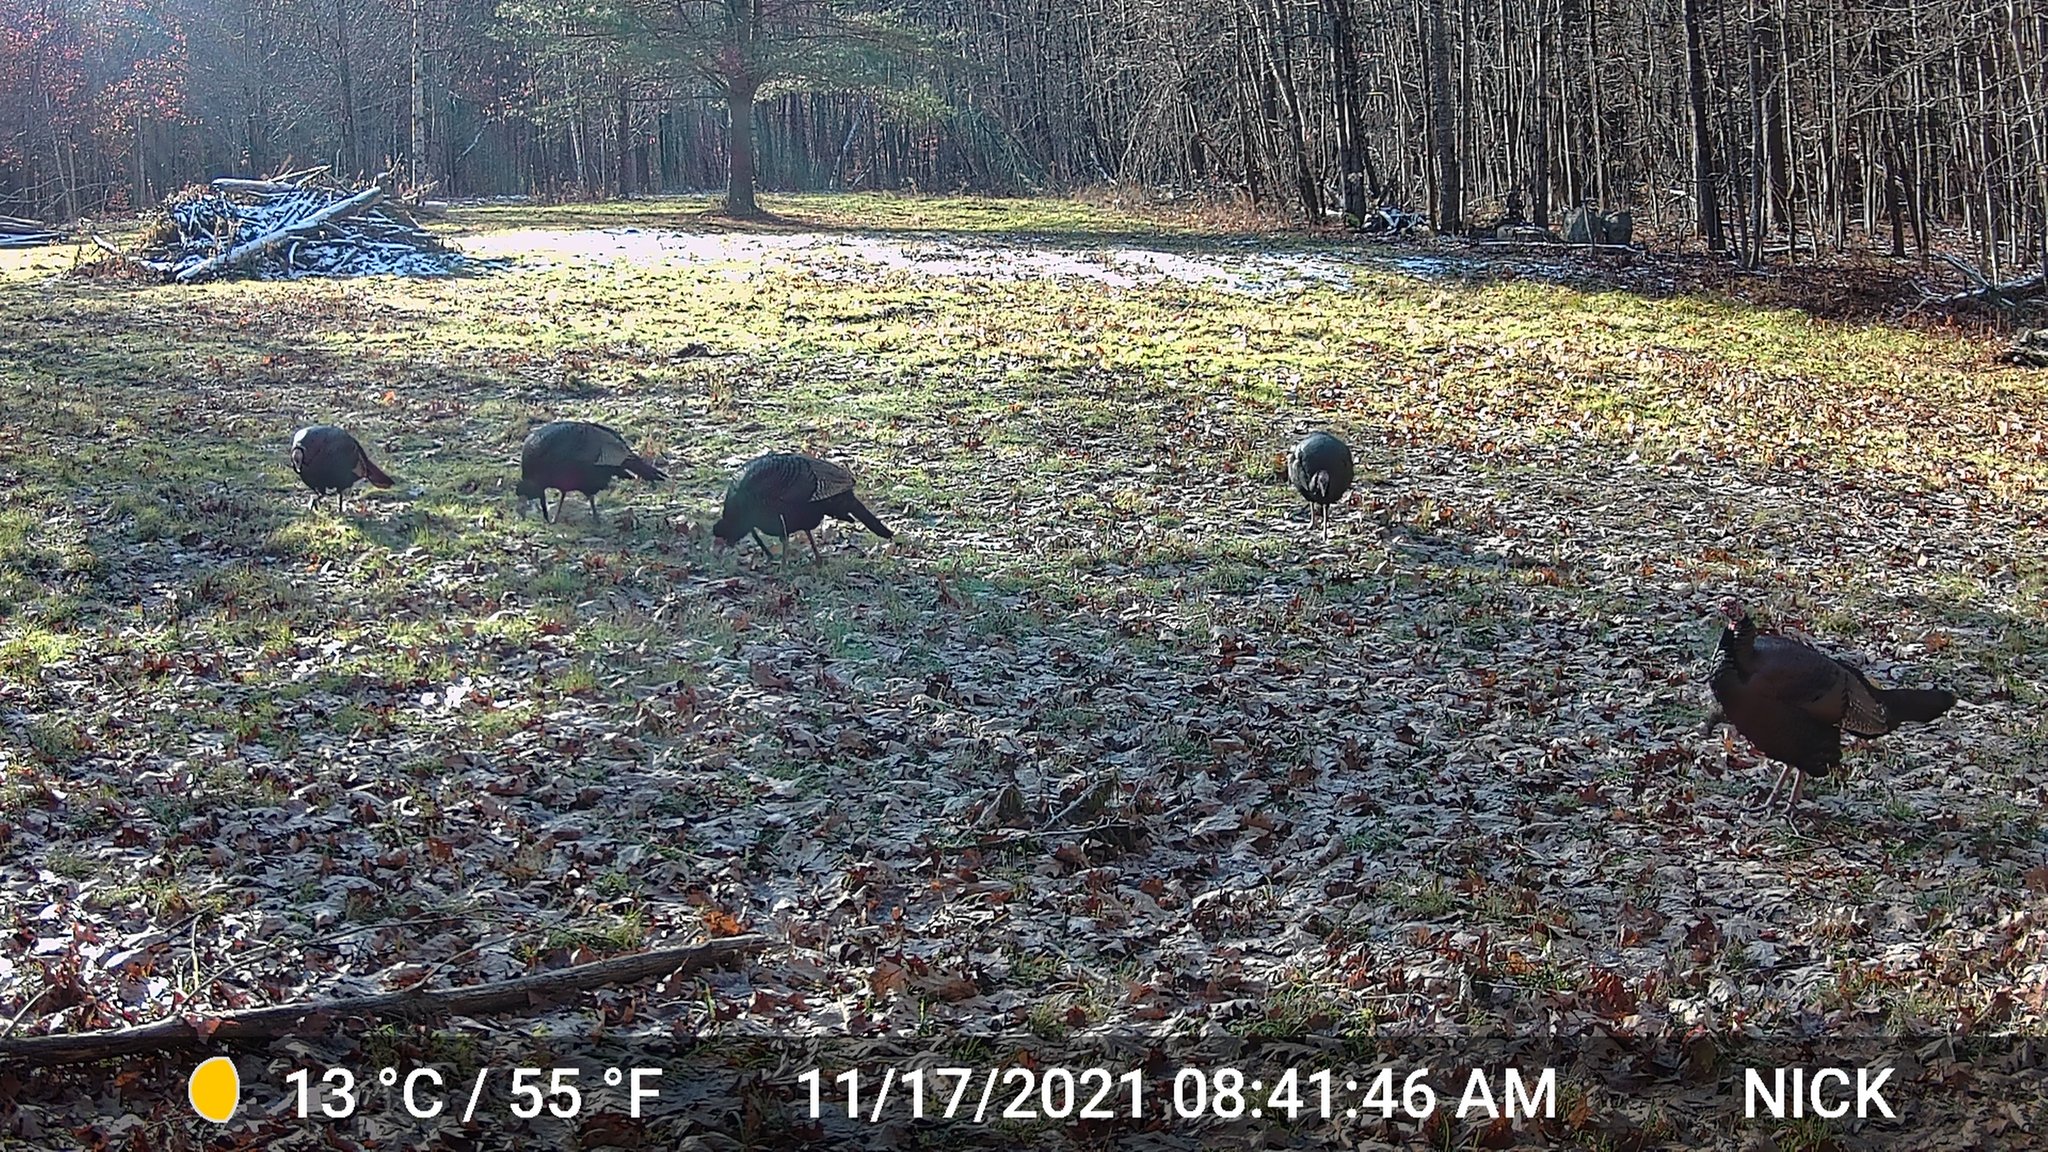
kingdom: Animalia
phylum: Chordata
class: Aves
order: Galliformes
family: Phasianidae
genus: Meleagris
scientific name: Meleagris gallopavo
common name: Wild turkey
